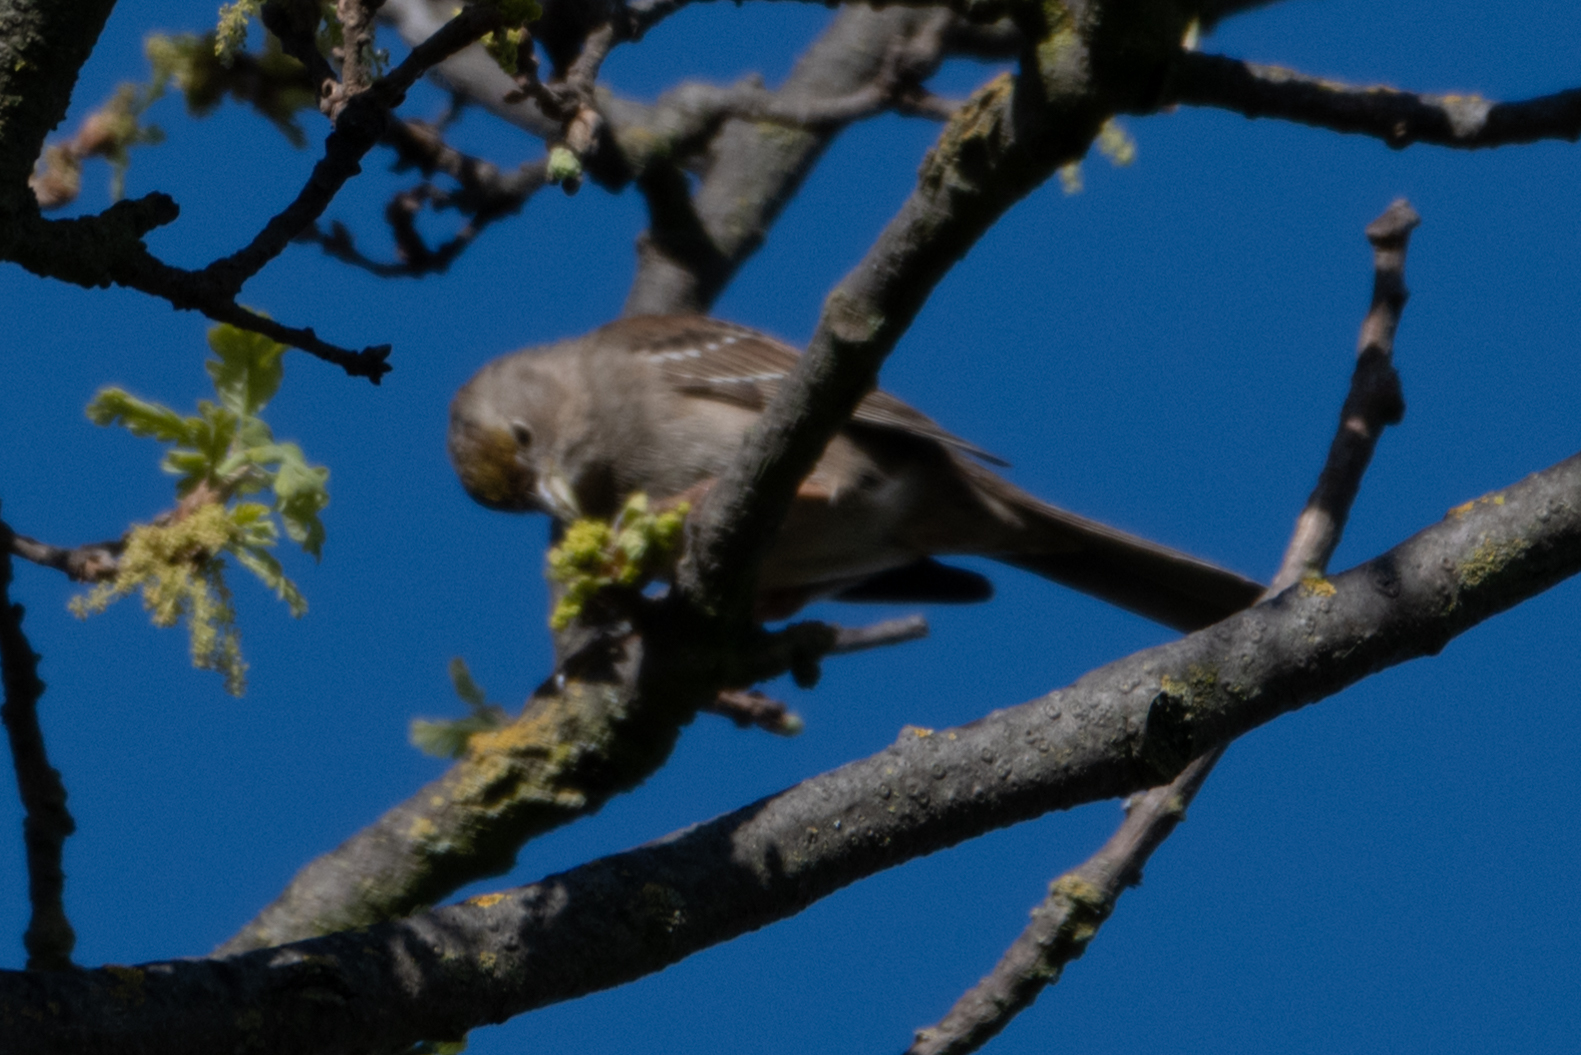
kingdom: Animalia
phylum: Chordata
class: Aves
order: Passeriformes
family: Passerellidae
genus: Zonotrichia
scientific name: Zonotrichia atricapilla
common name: Golden-crowned sparrow
